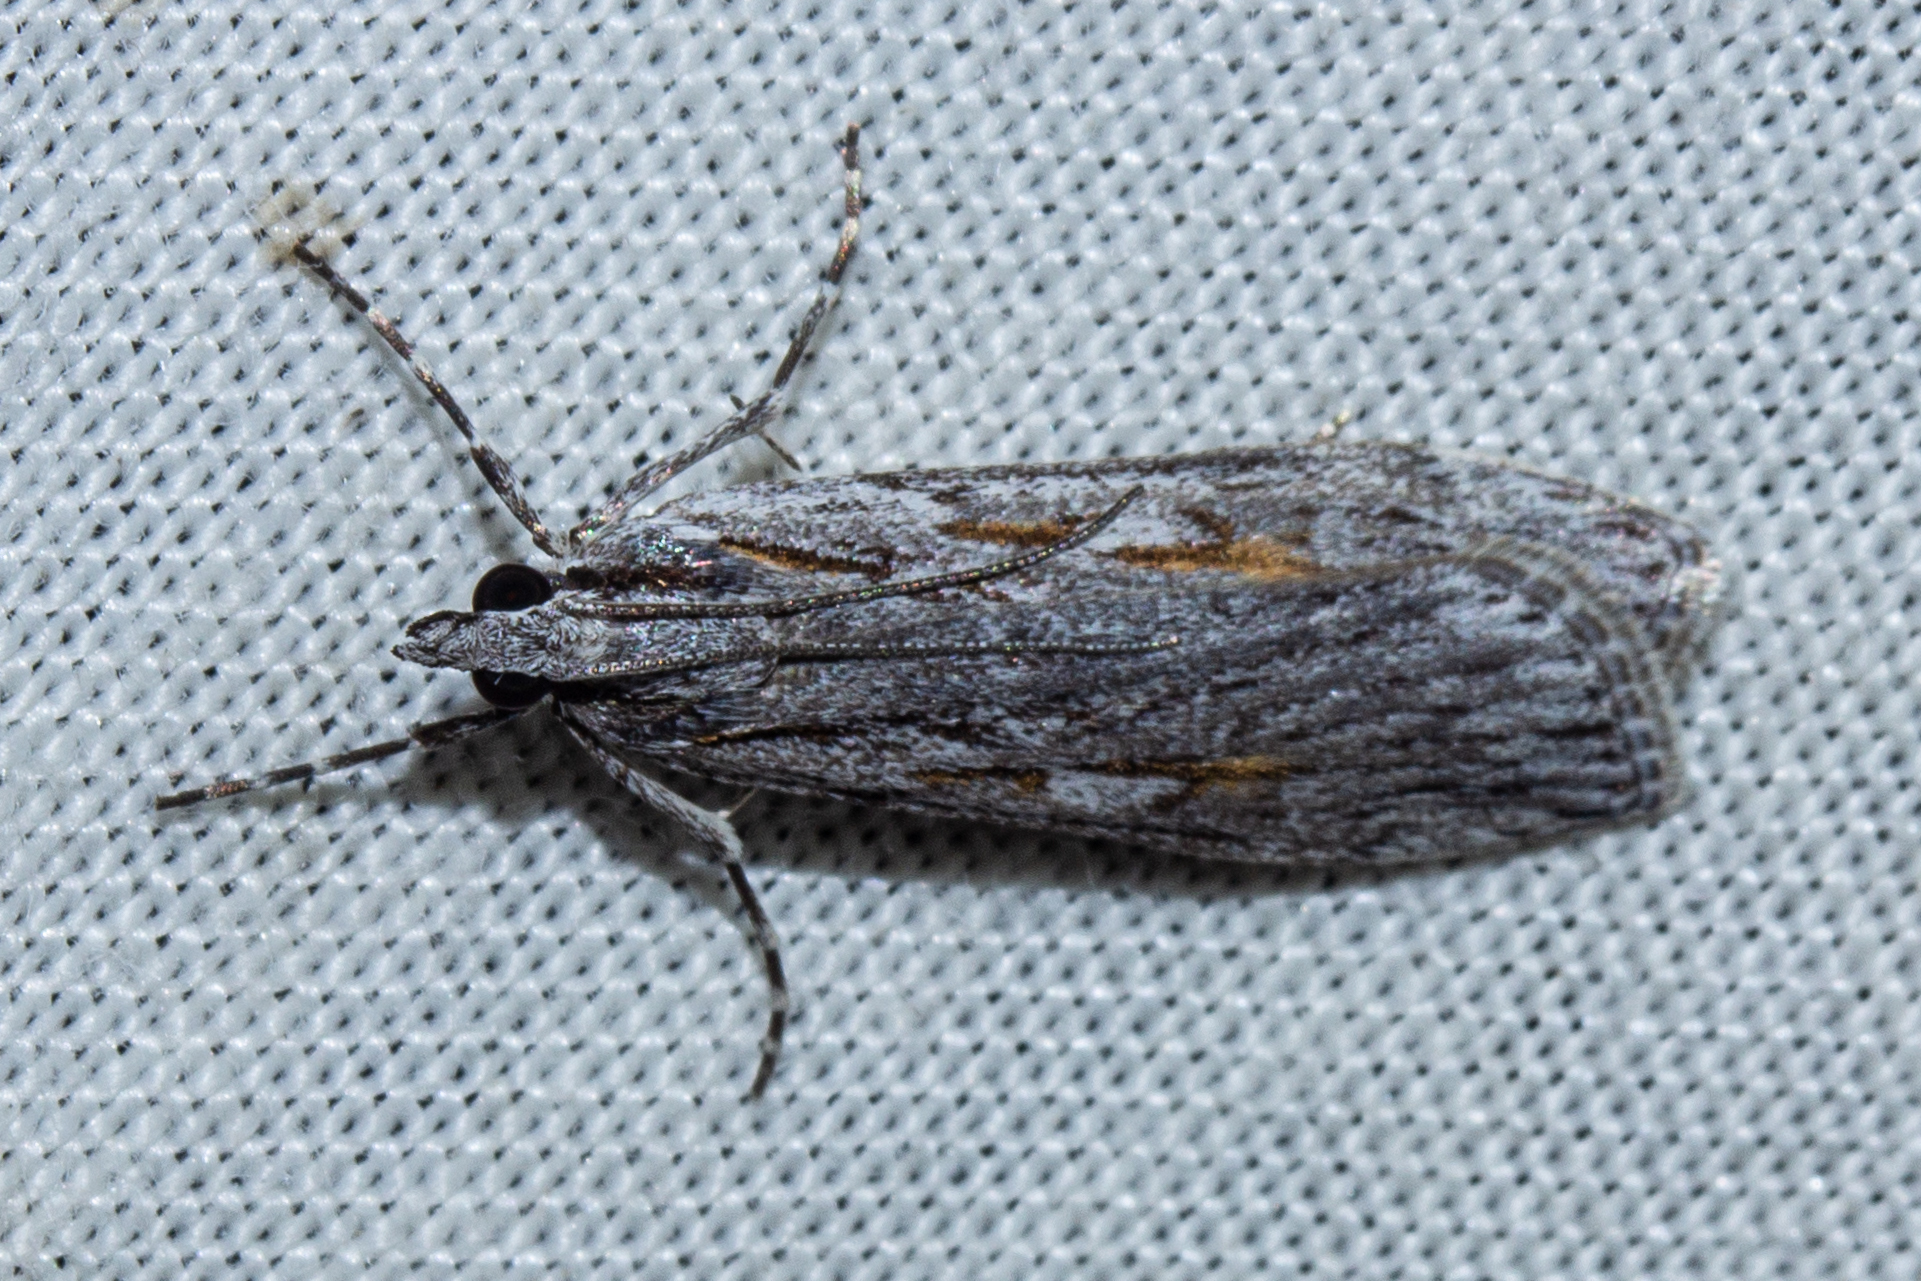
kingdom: Animalia
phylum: Arthropoda
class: Insecta
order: Lepidoptera
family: Crambidae
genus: Scoparia
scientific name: Scoparia indistinctalis
